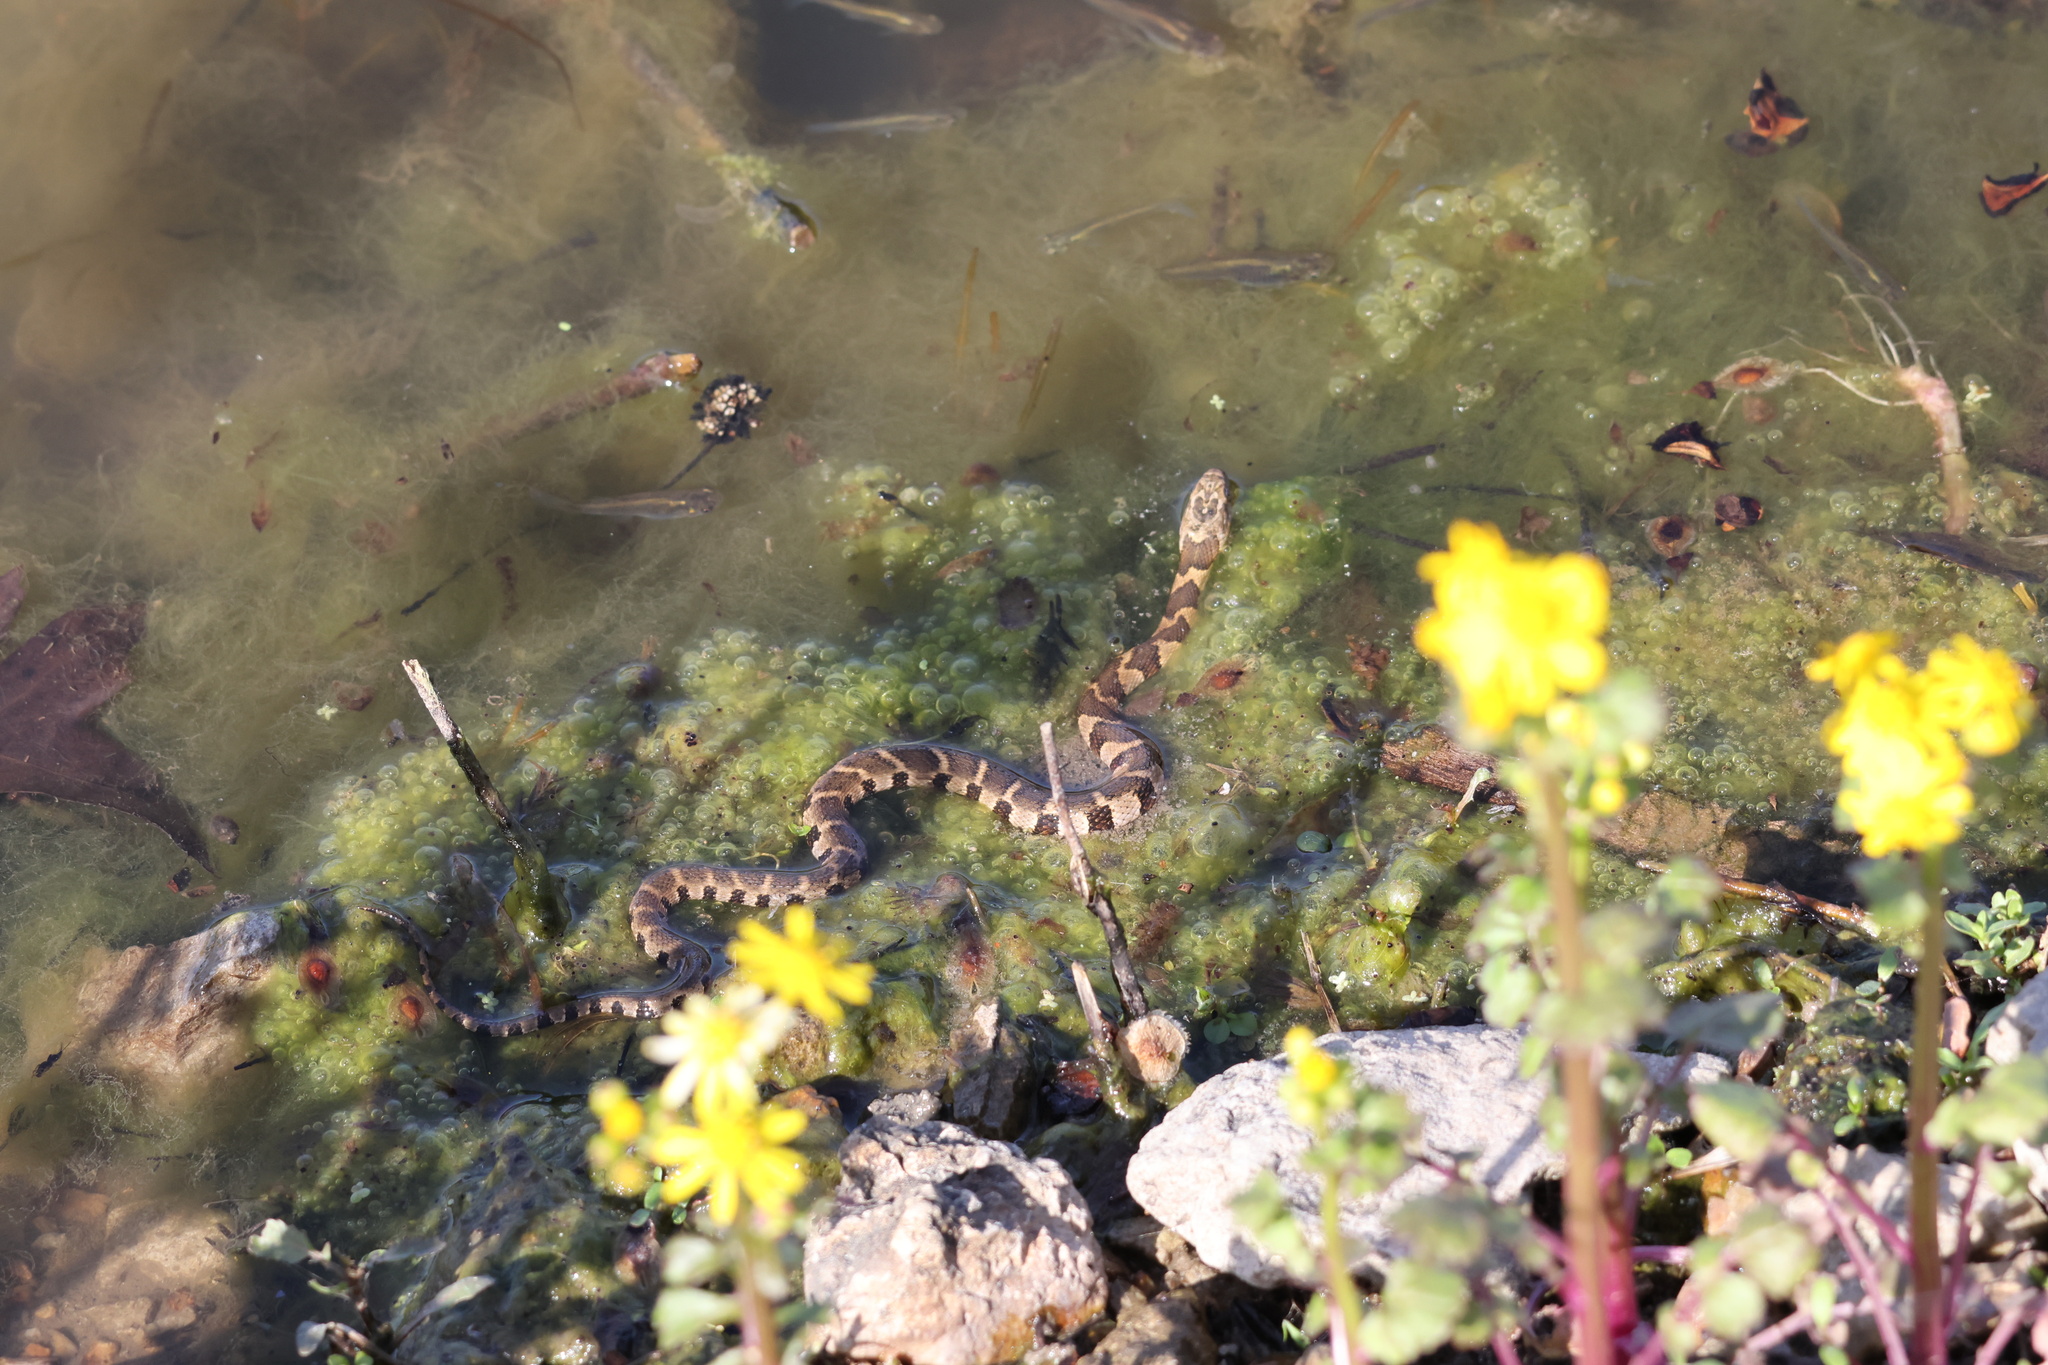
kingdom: Animalia
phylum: Chordata
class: Squamata
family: Colubridae
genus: Nerodia
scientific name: Nerodia sipedon
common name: Northern water snake
